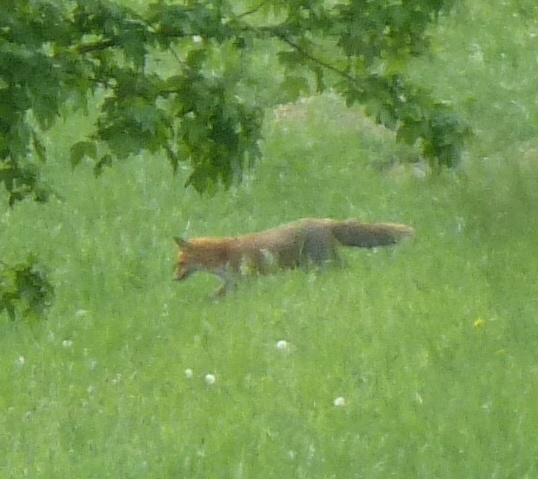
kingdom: Animalia
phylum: Chordata
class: Mammalia
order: Carnivora
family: Canidae
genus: Vulpes
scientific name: Vulpes vulpes
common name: Red fox
